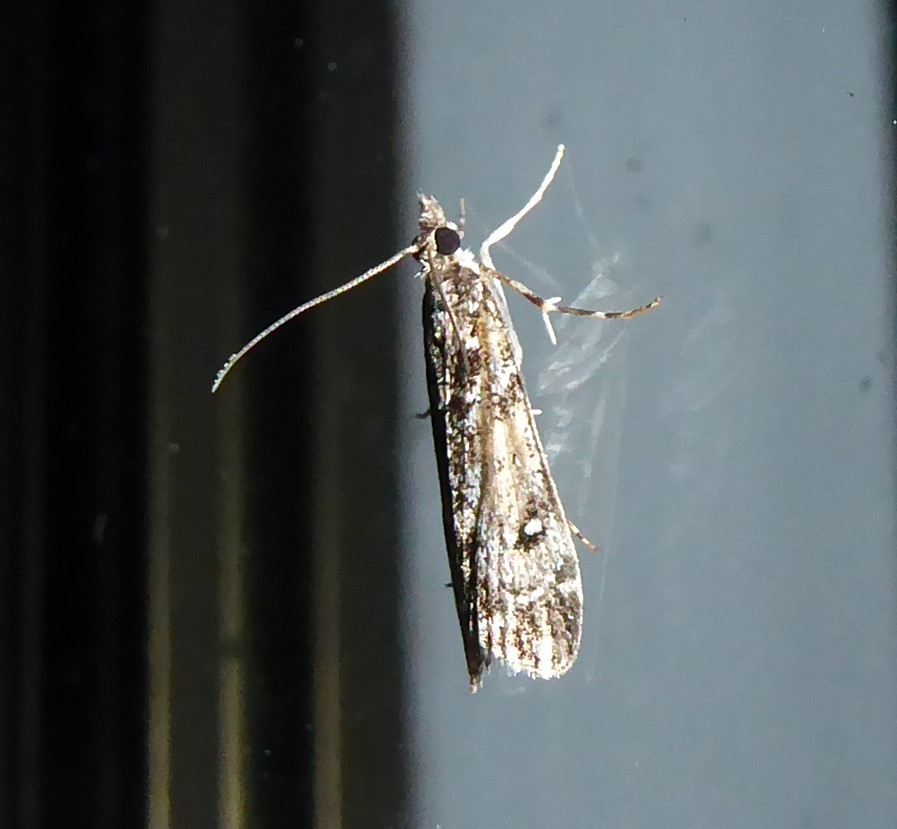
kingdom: Animalia
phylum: Arthropoda
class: Insecta
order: Lepidoptera
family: Crambidae
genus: Eudonia
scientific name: Eudonia philerga
